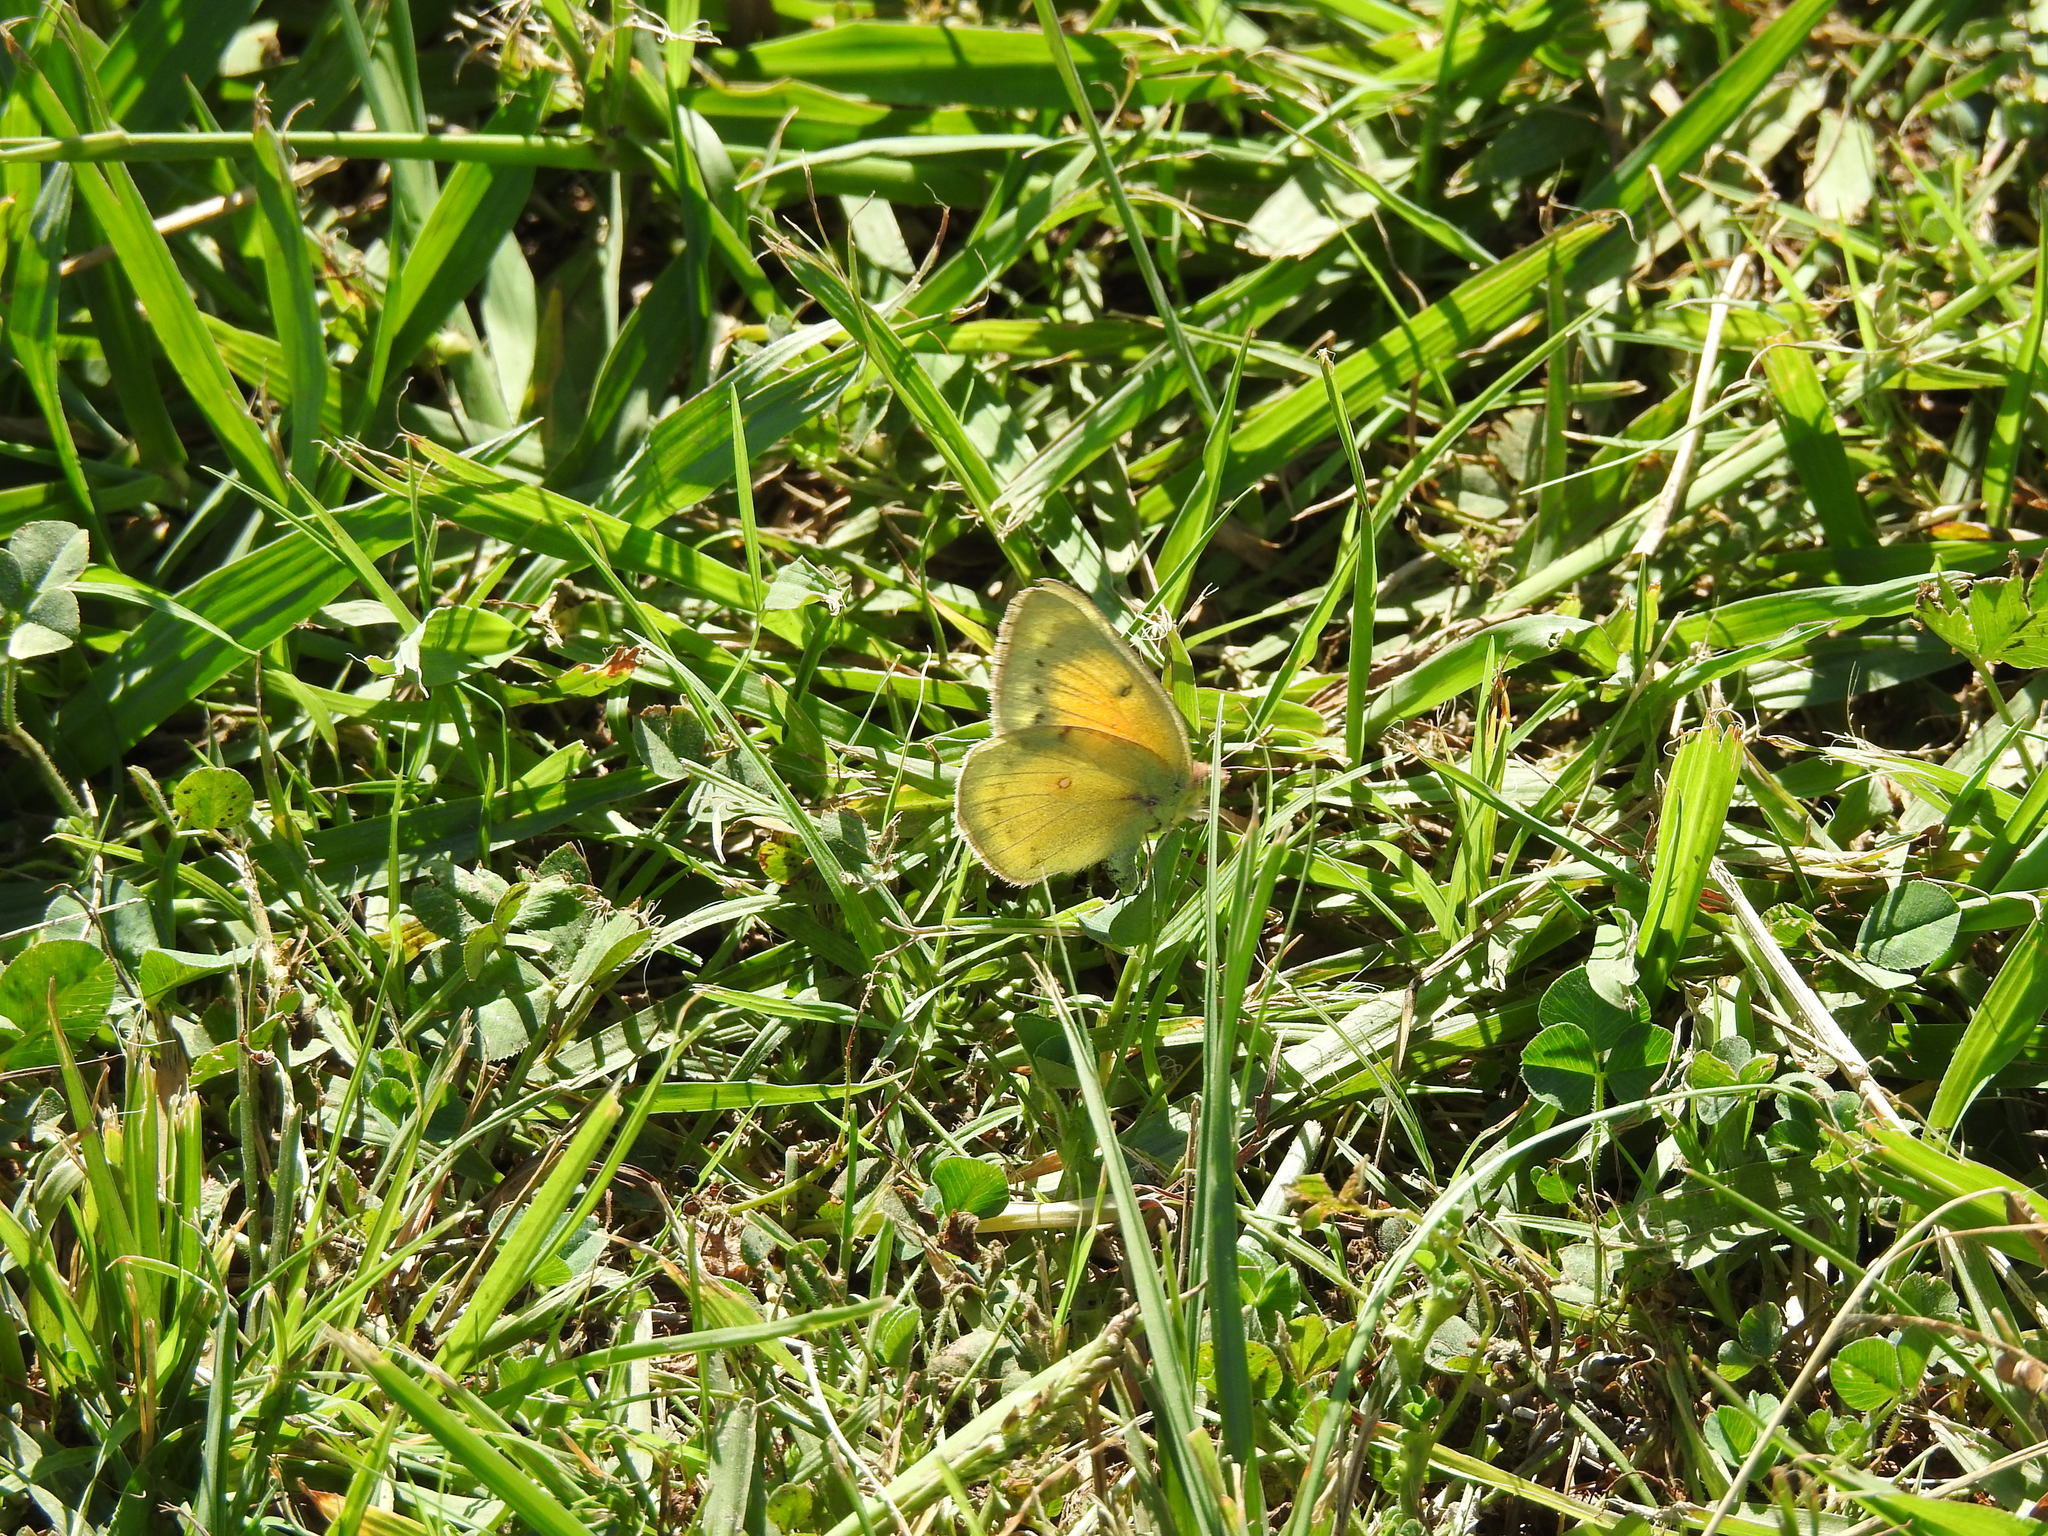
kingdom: Animalia
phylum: Arthropoda
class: Insecta
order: Lepidoptera
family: Pieridae
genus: Colias
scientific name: Colias lesbia
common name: Lesbia clouded yellow
